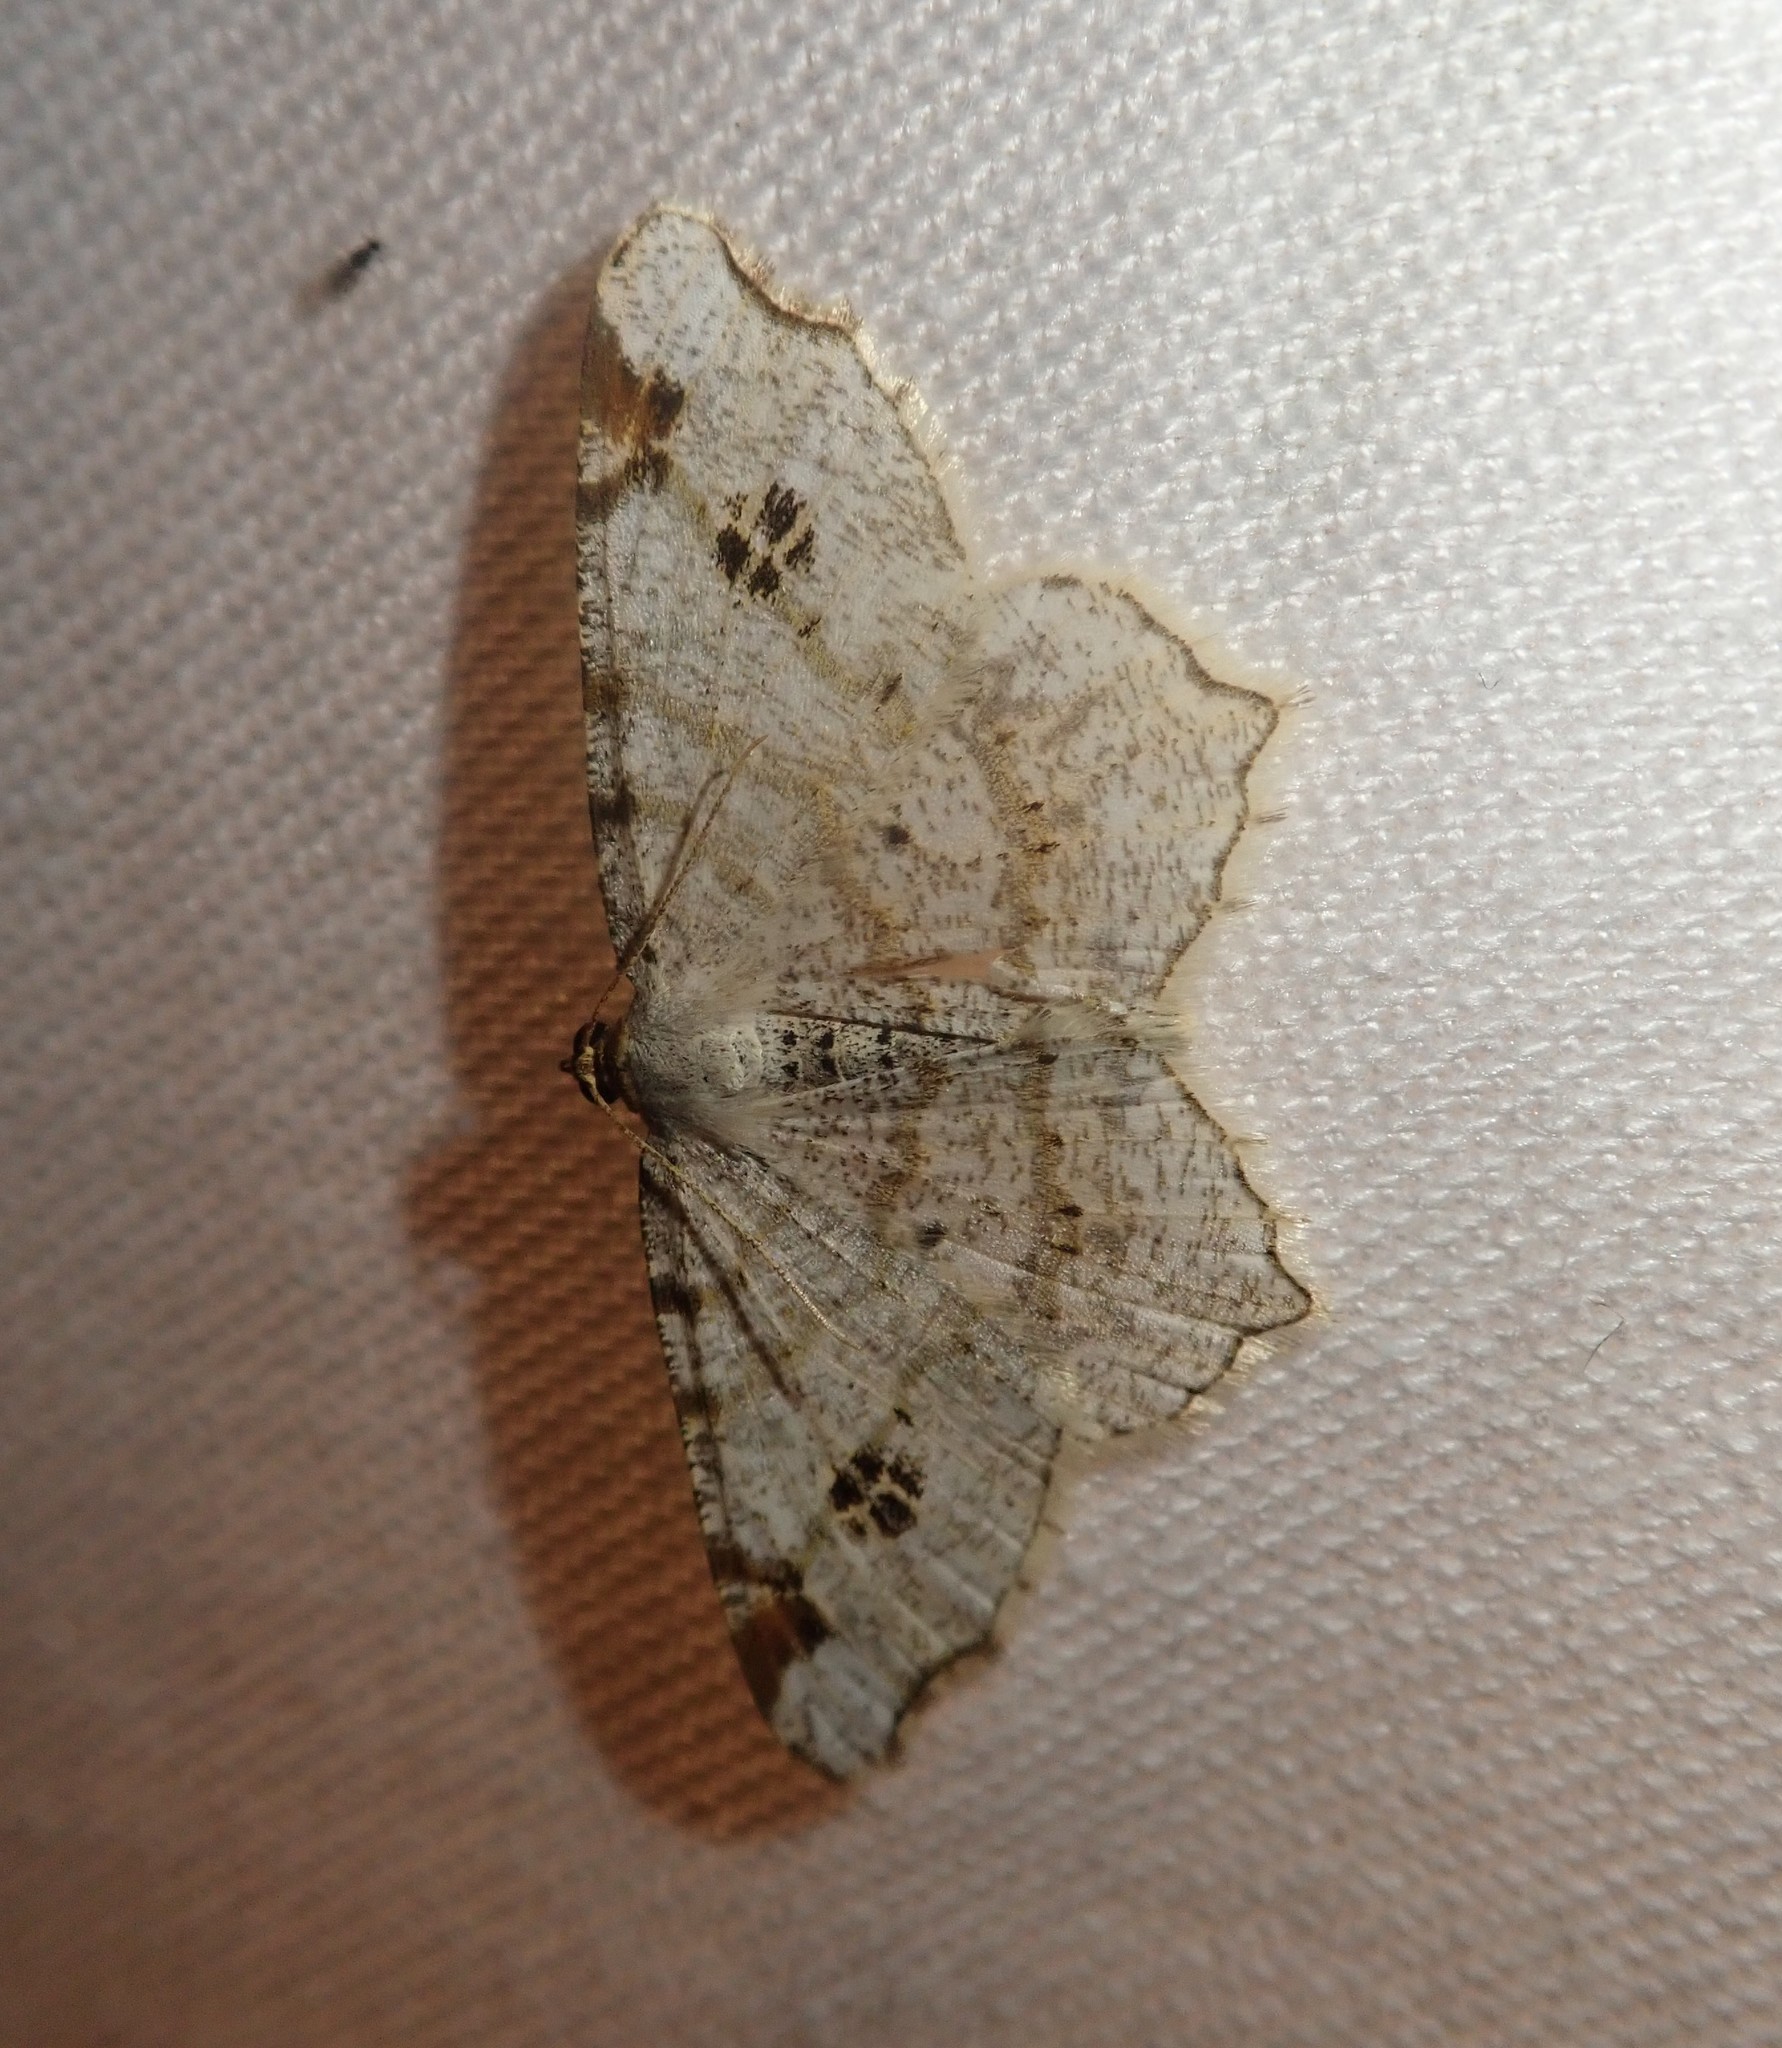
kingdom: Animalia
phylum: Arthropoda
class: Insecta
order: Lepidoptera
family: Geometridae
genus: Macaria
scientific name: Macaria notata
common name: Peacock moth
